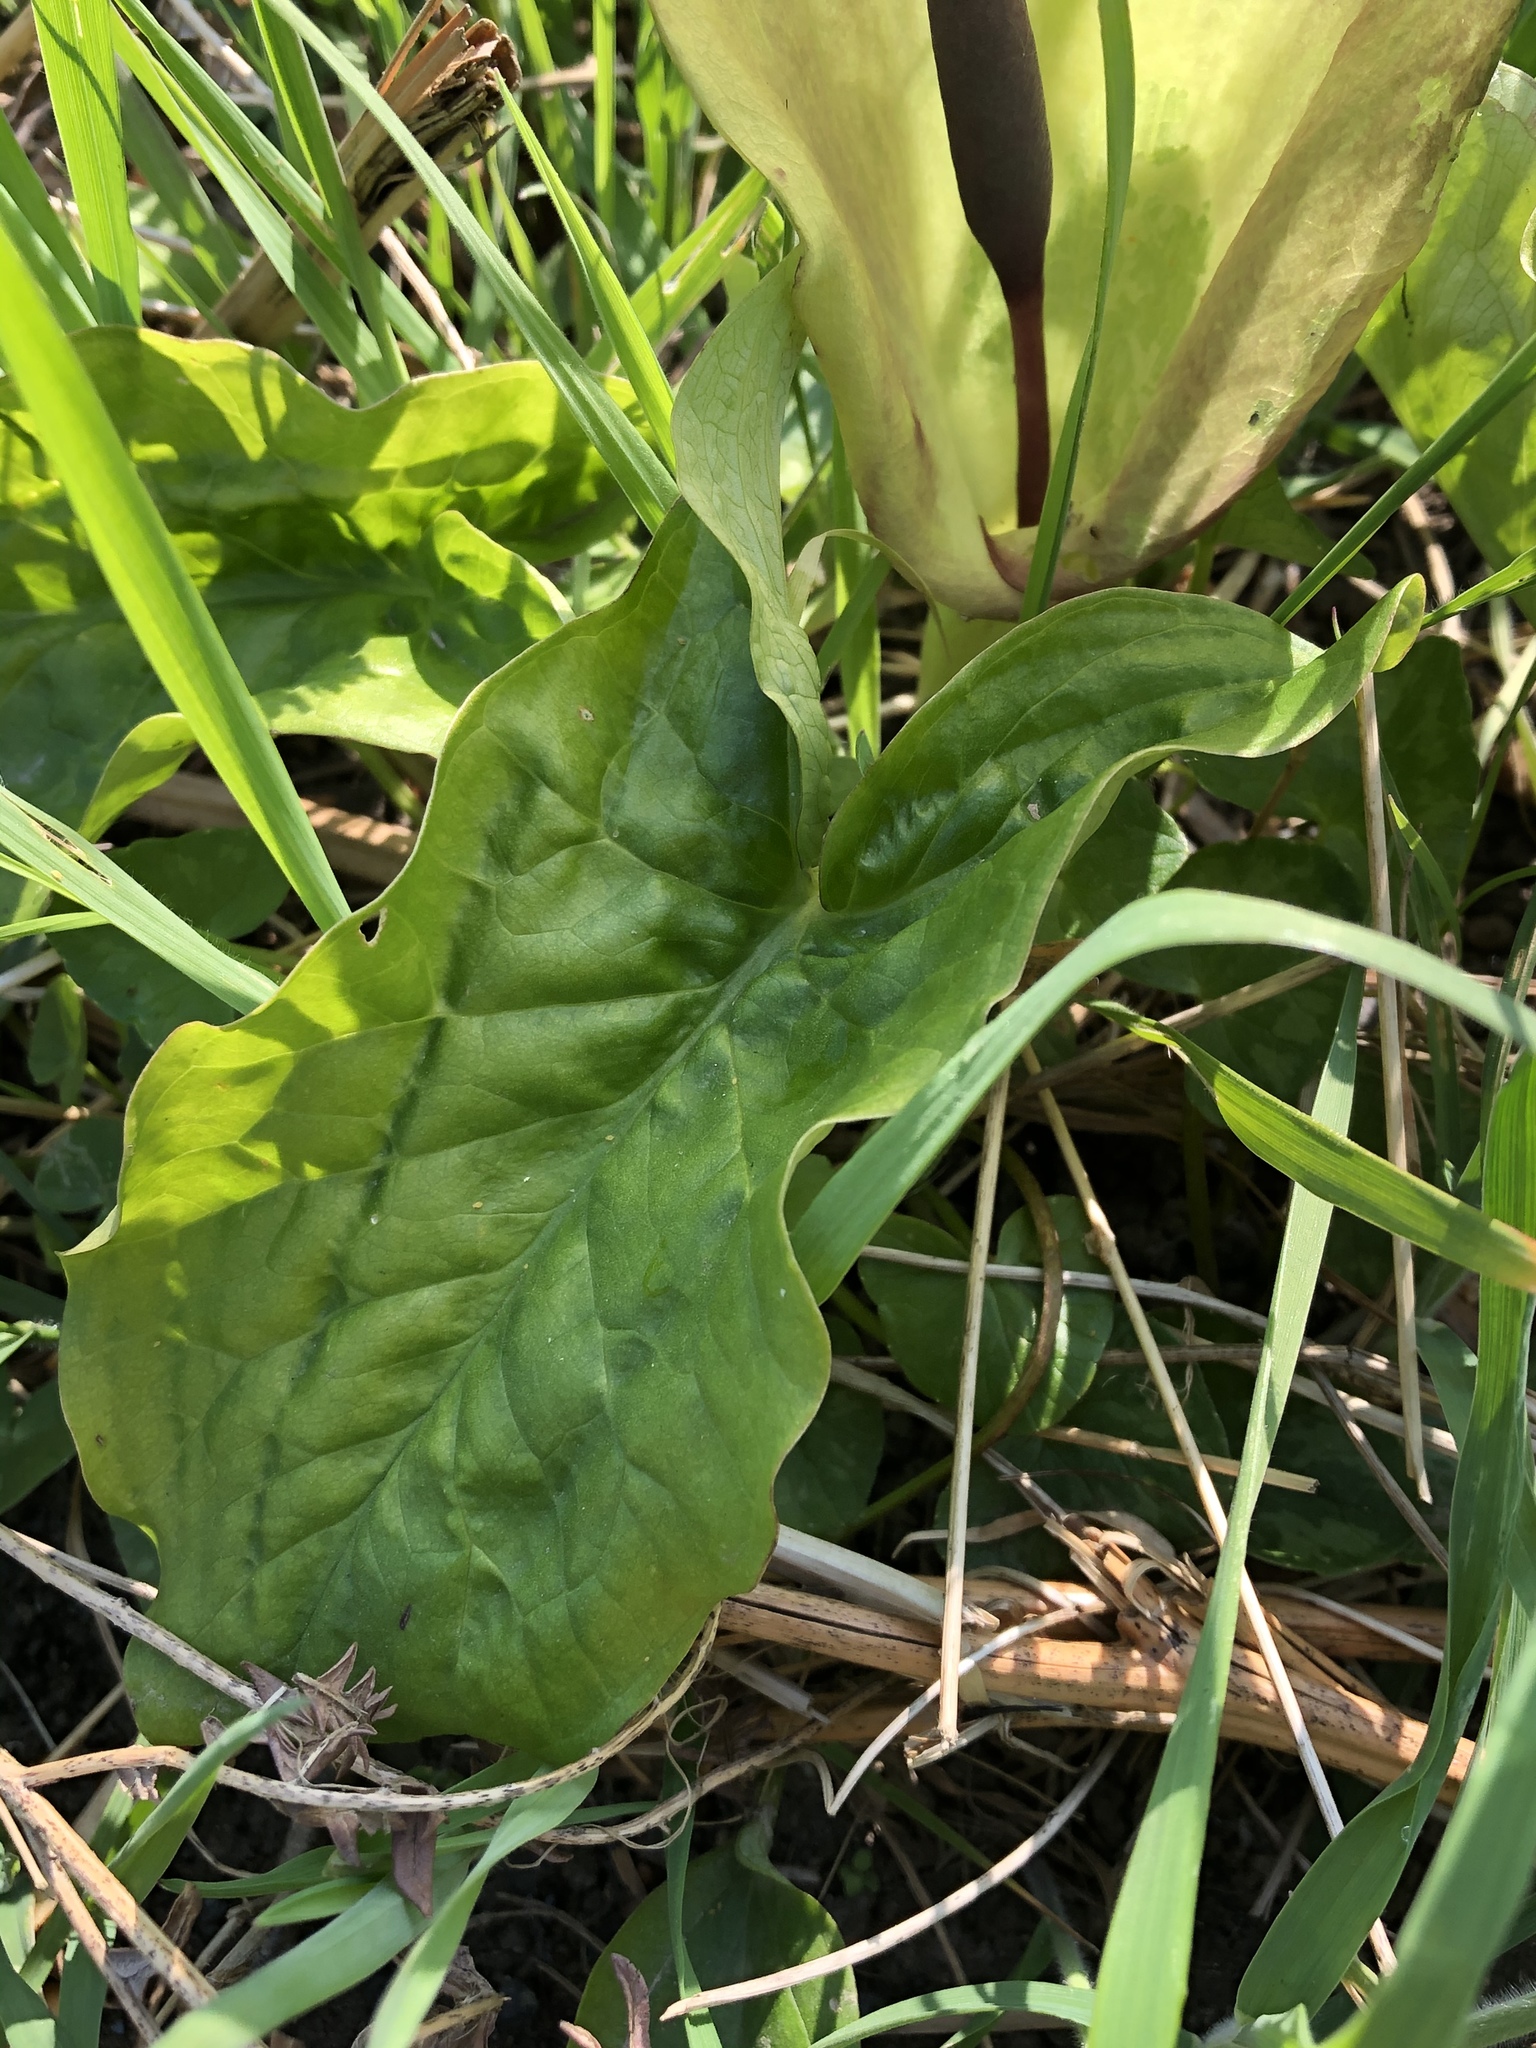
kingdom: Plantae
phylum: Tracheophyta
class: Liliopsida
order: Alismatales
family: Araceae
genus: Arum
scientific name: Arum maculatum
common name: Lords-and-ladies
